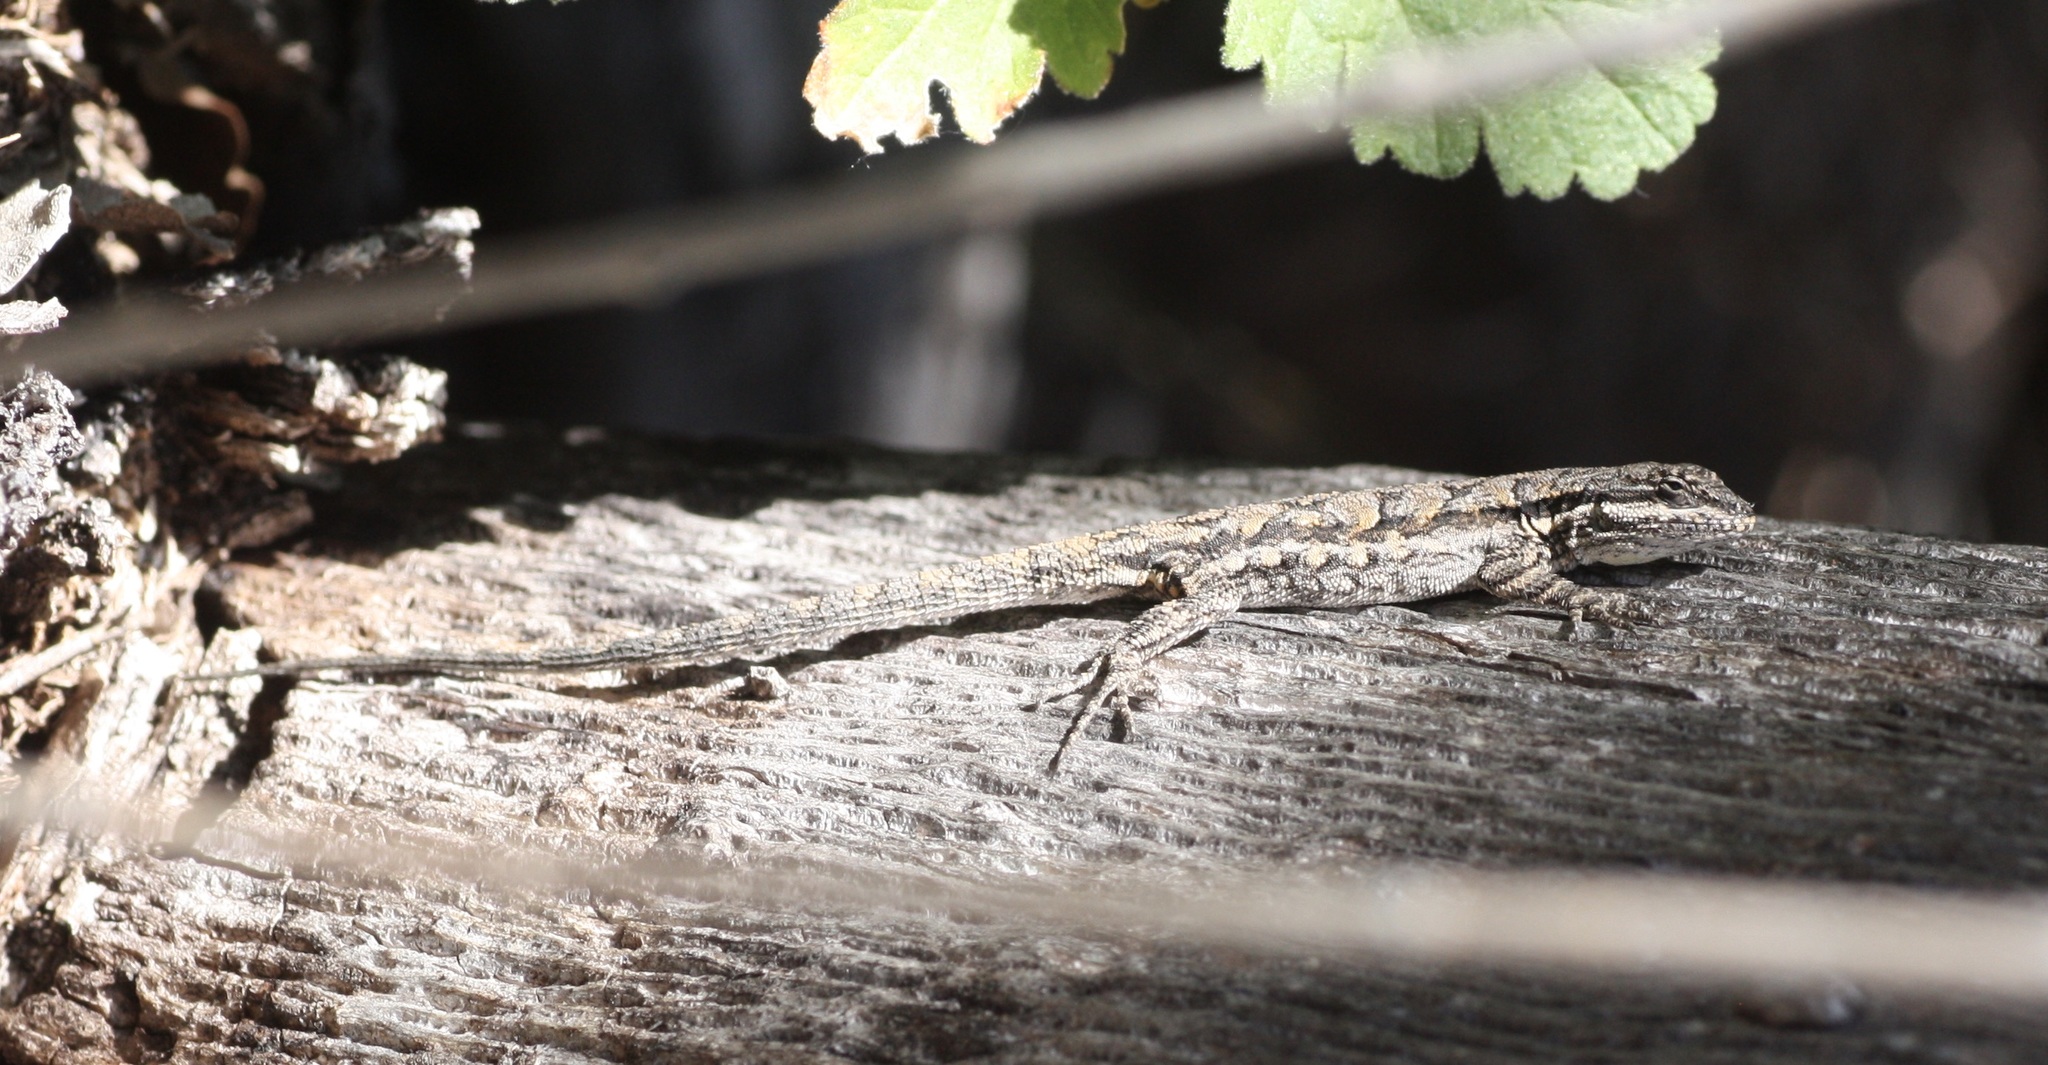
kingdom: Animalia
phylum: Chordata
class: Squamata
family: Phrynosomatidae
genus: Urosaurus
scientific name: Urosaurus ornatus
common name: Ornate tree lizard
